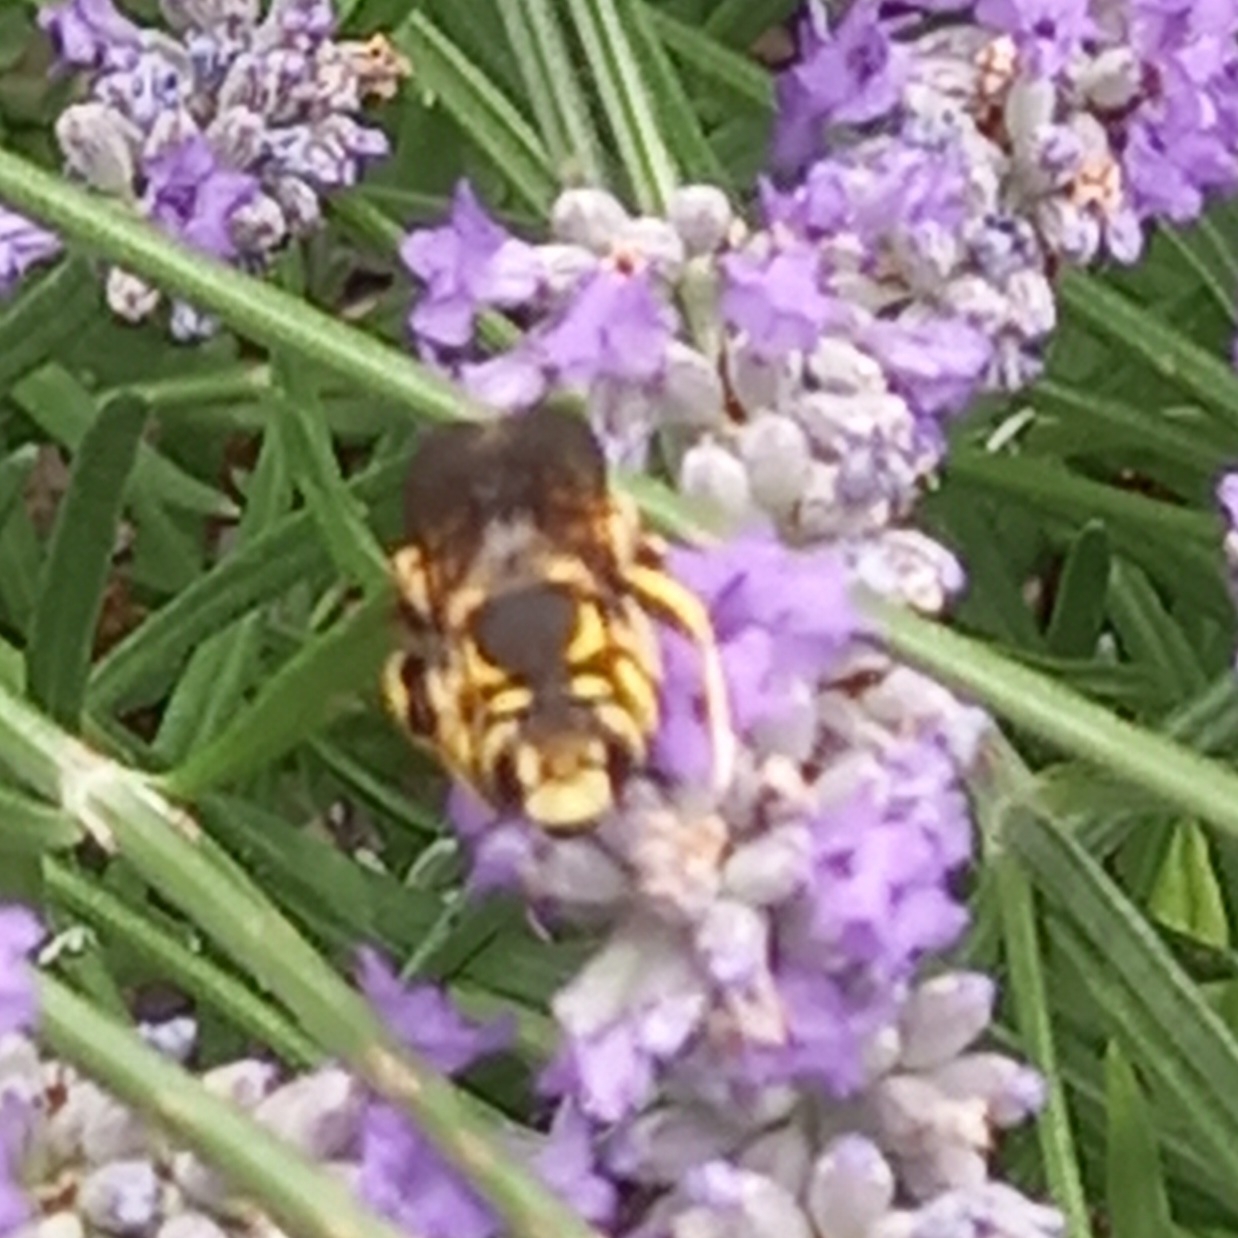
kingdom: Animalia
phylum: Arthropoda
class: Insecta
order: Hymenoptera
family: Megachilidae
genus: Anthidium
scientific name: Anthidium florentinum
